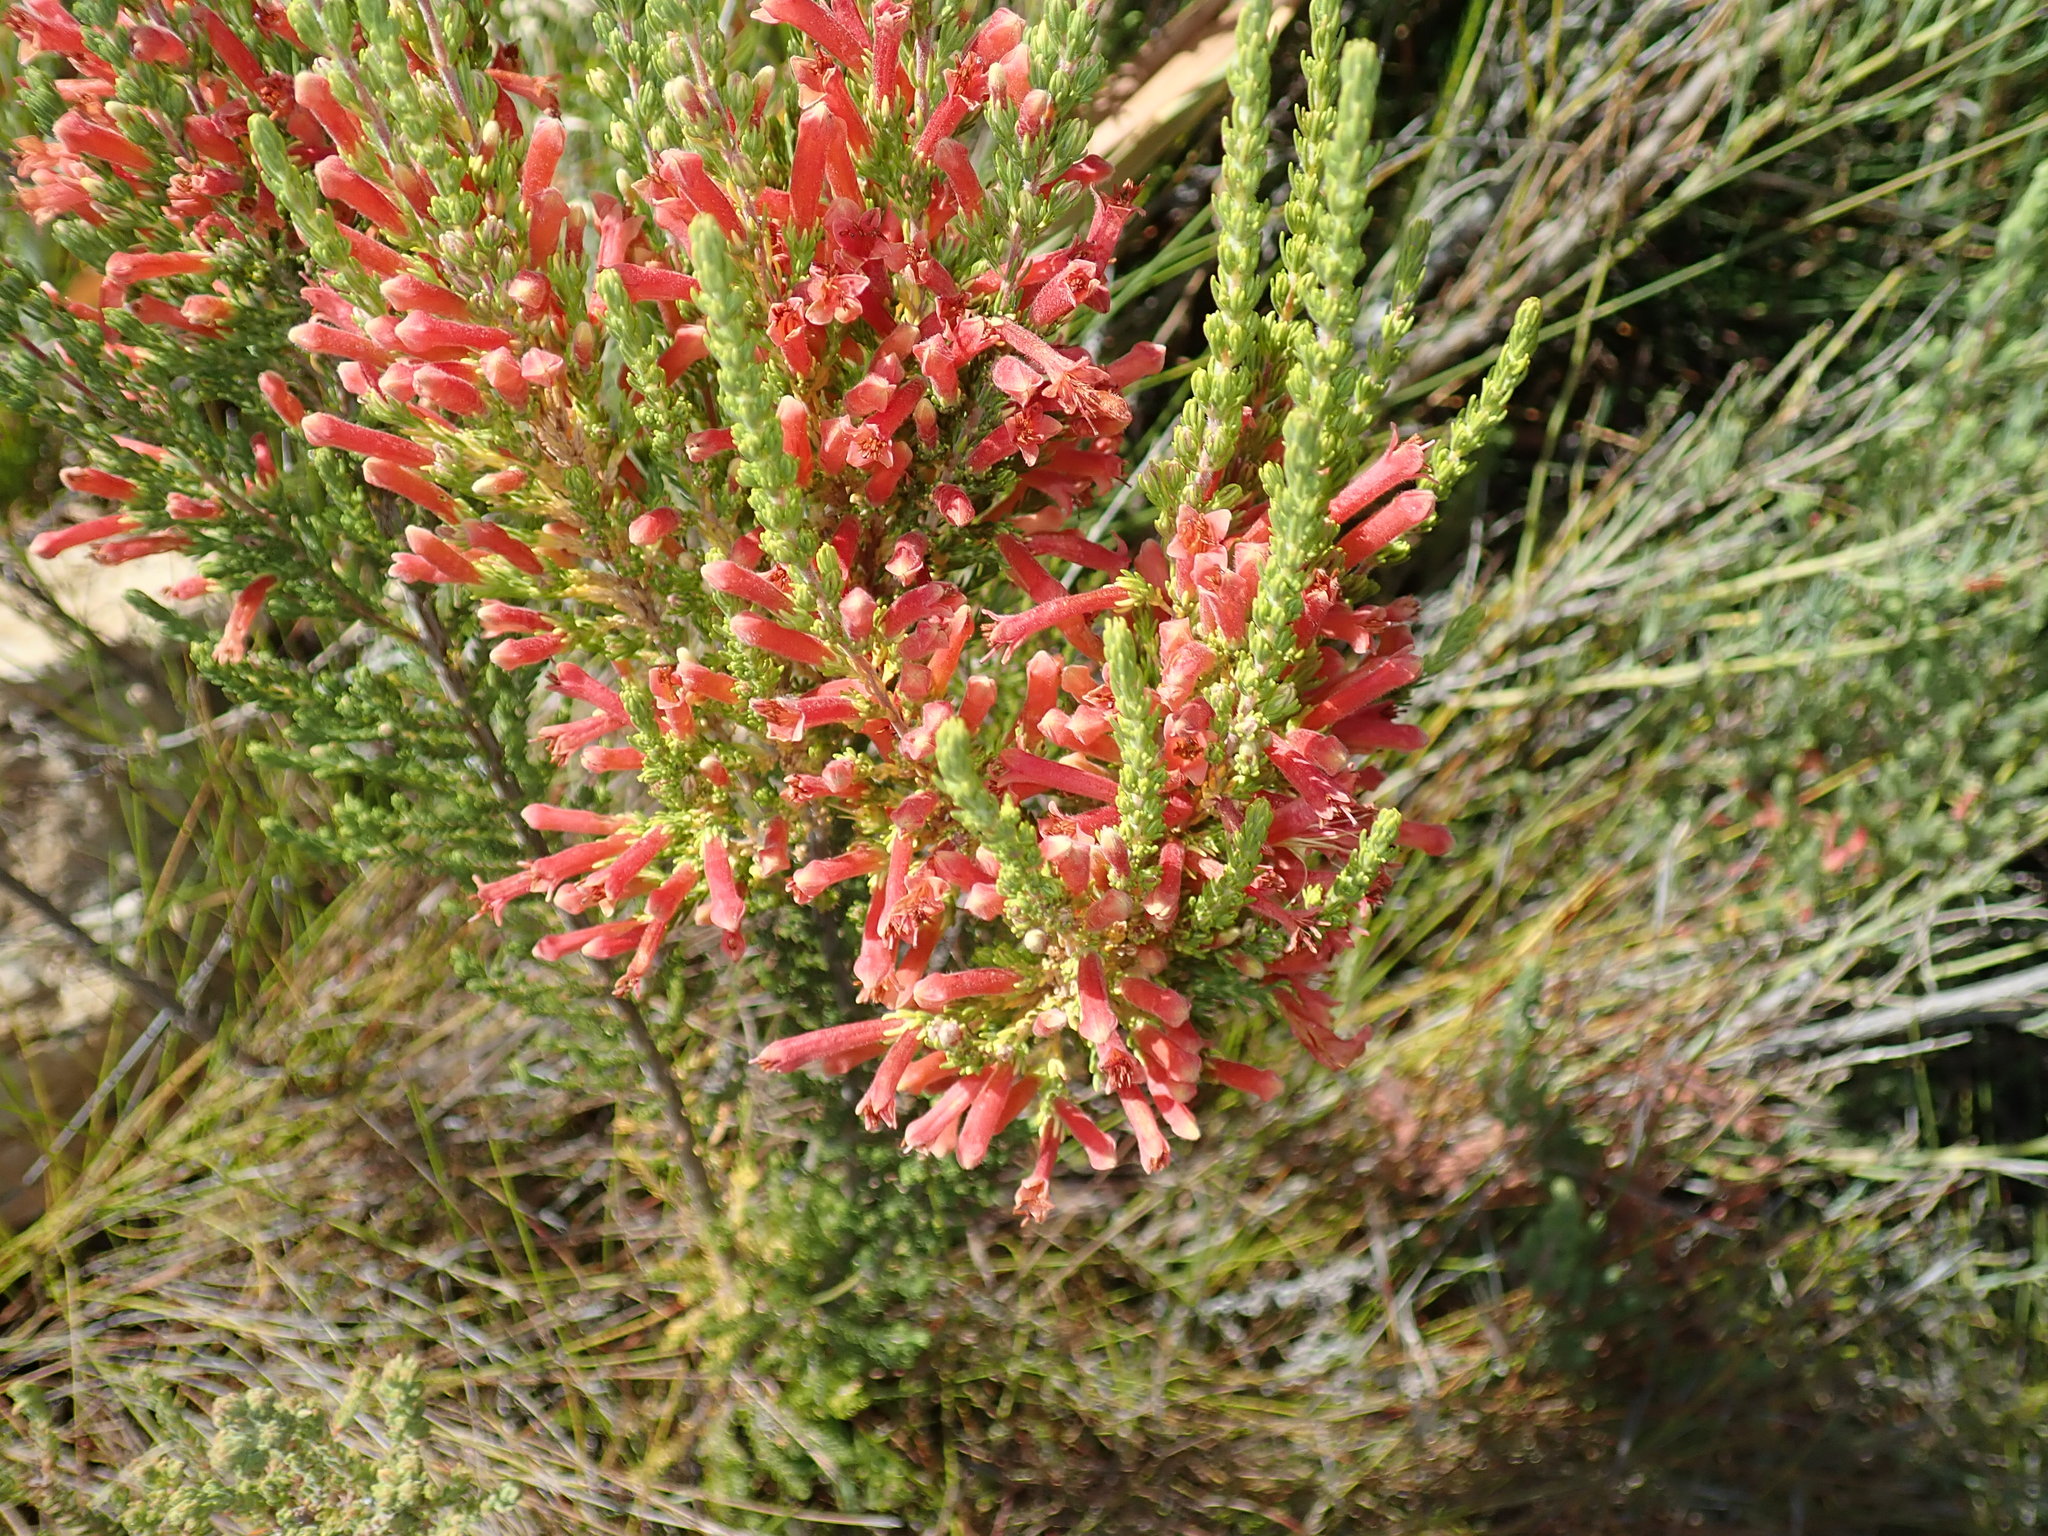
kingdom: Plantae
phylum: Tracheophyta
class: Magnoliopsida
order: Ericales
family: Ericaceae
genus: Erica
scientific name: Erica curviflora
